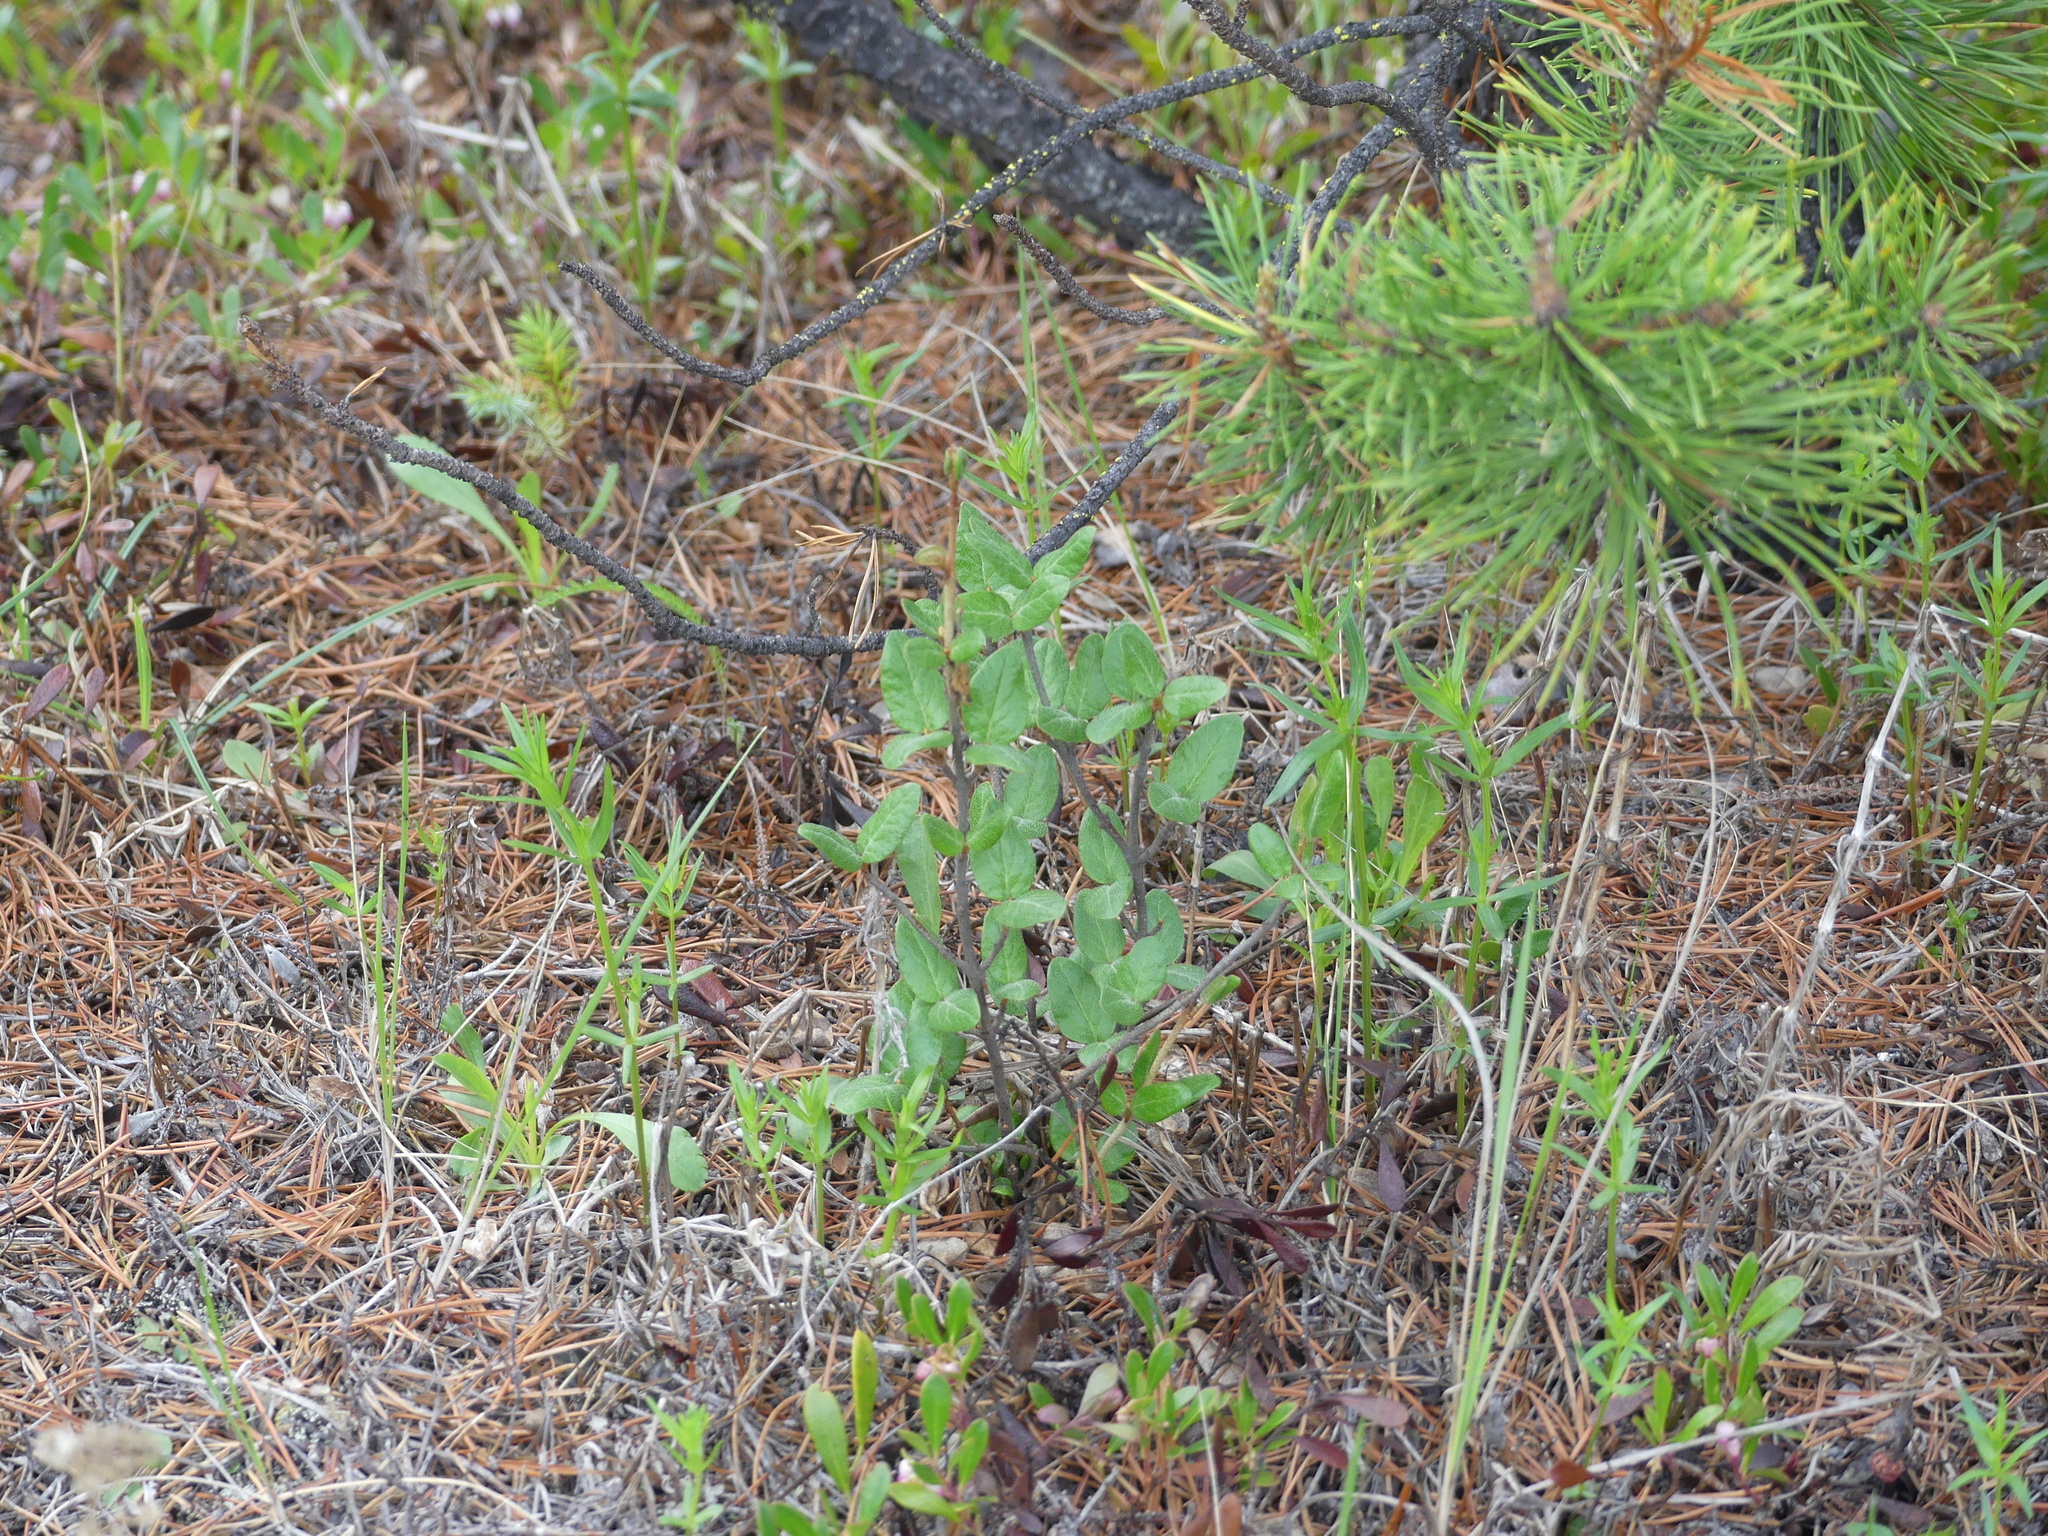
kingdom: Plantae
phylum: Tracheophyta
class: Magnoliopsida
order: Rosales
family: Elaeagnaceae
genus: Shepherdia
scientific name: Shepherdia canadensis
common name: Soapberry
